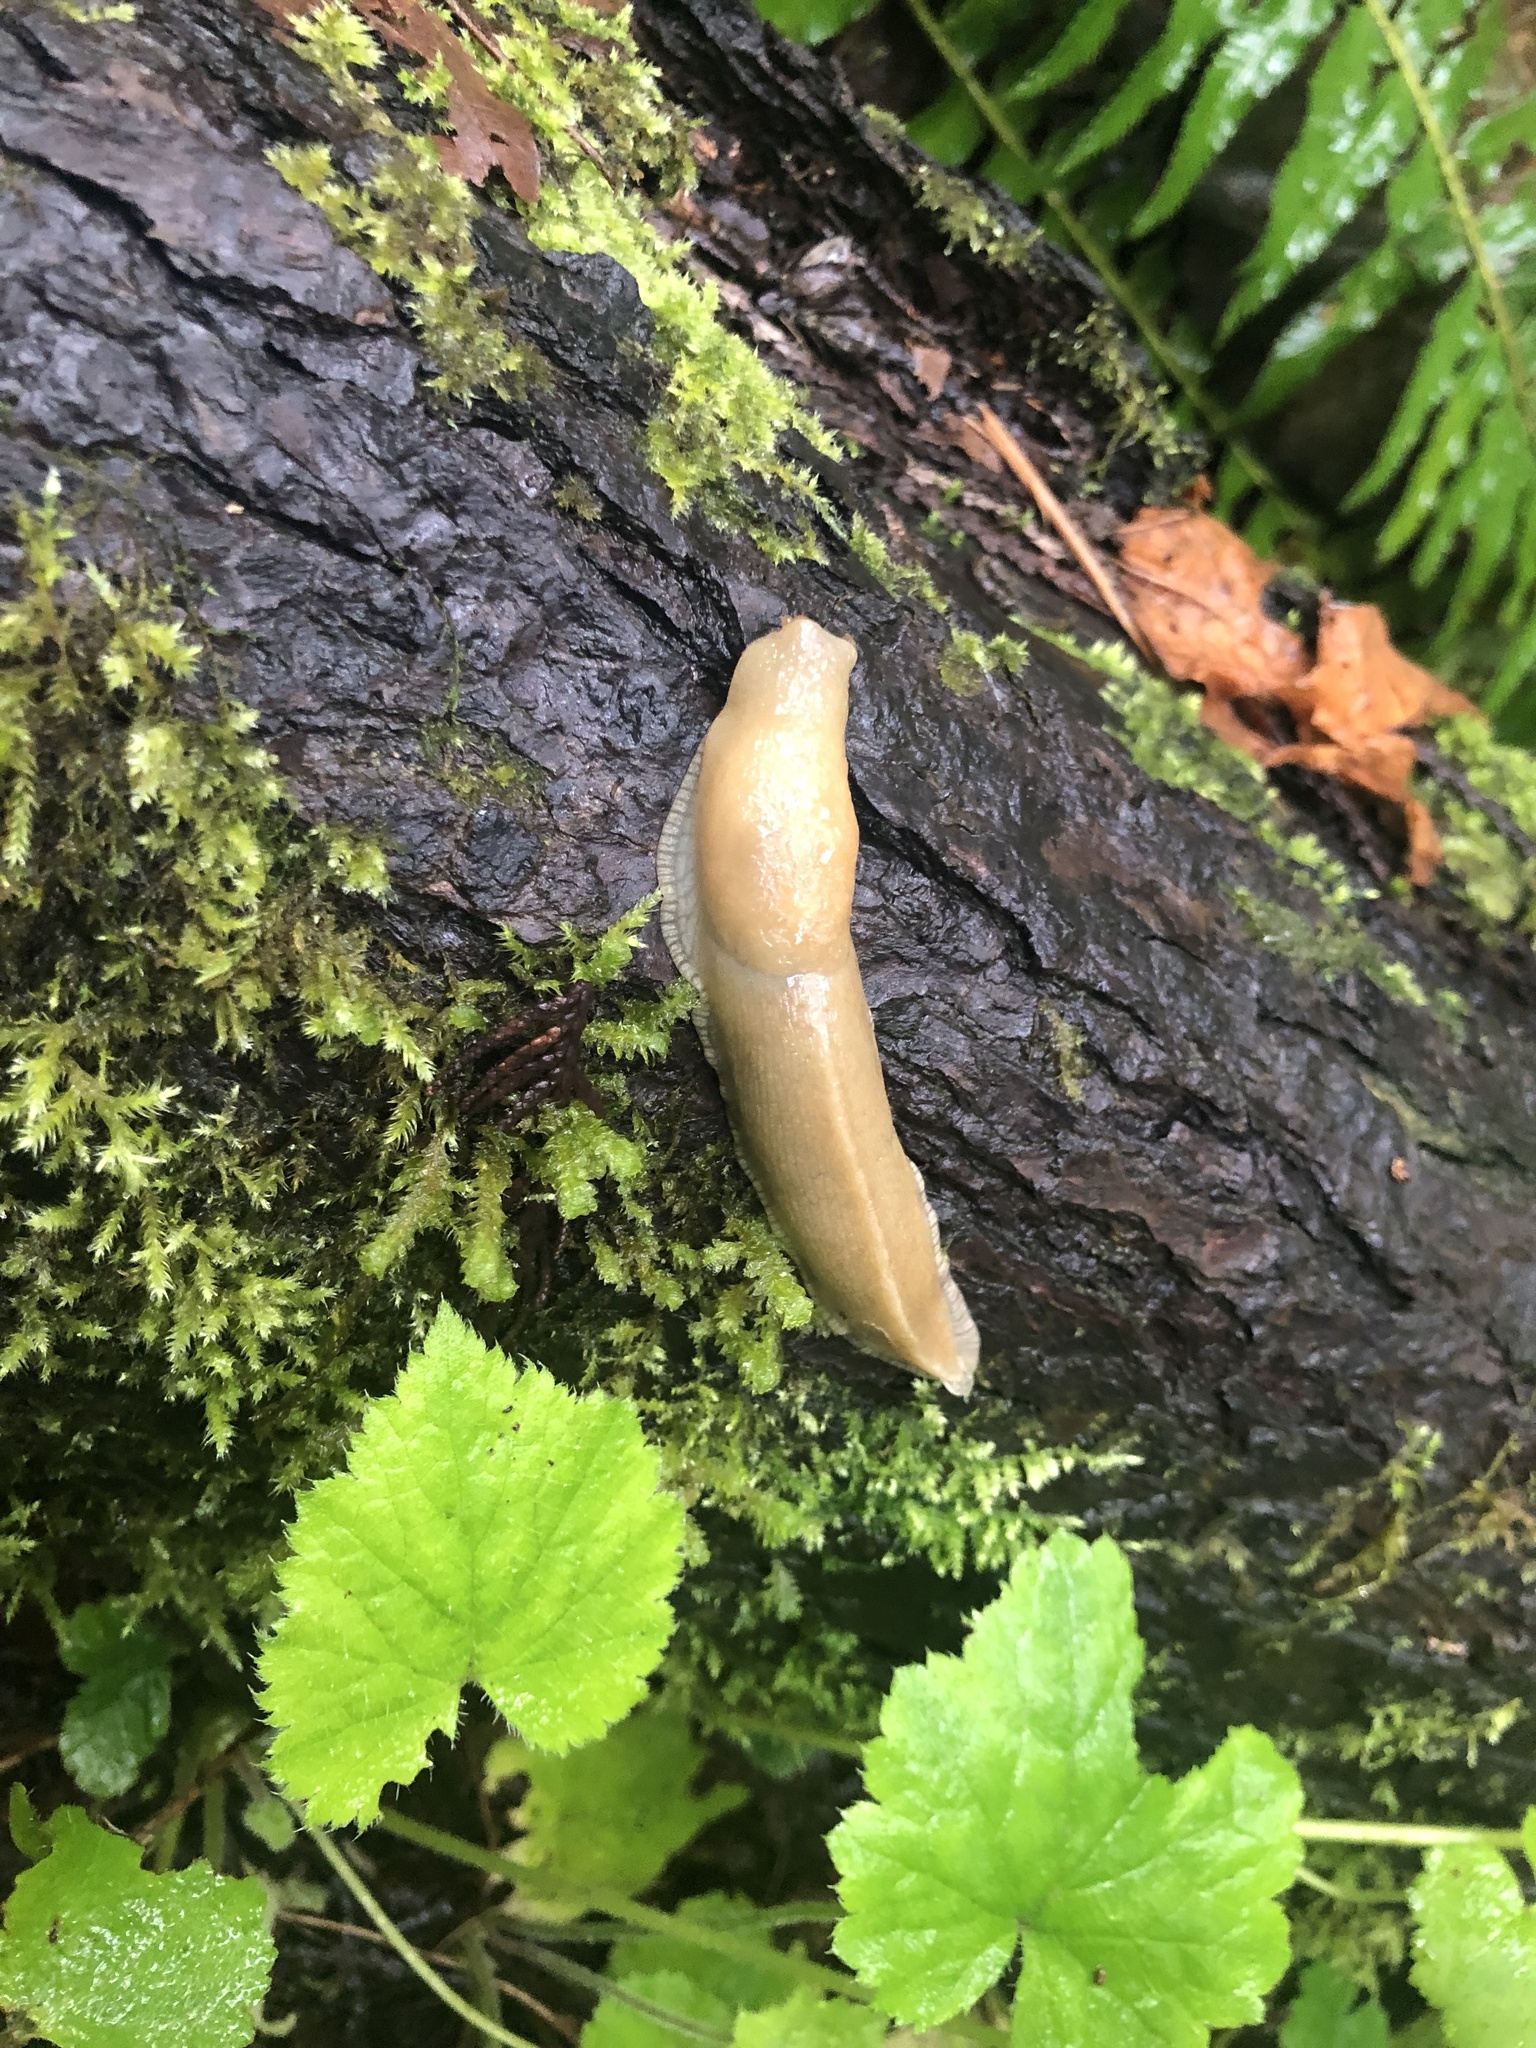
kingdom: Animalia
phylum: Mollusca
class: Gastropoda
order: Stylommatophora
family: Ariolimacidae
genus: Ariolimax
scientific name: Ariolimax columbianus
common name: Pacific banana slug
